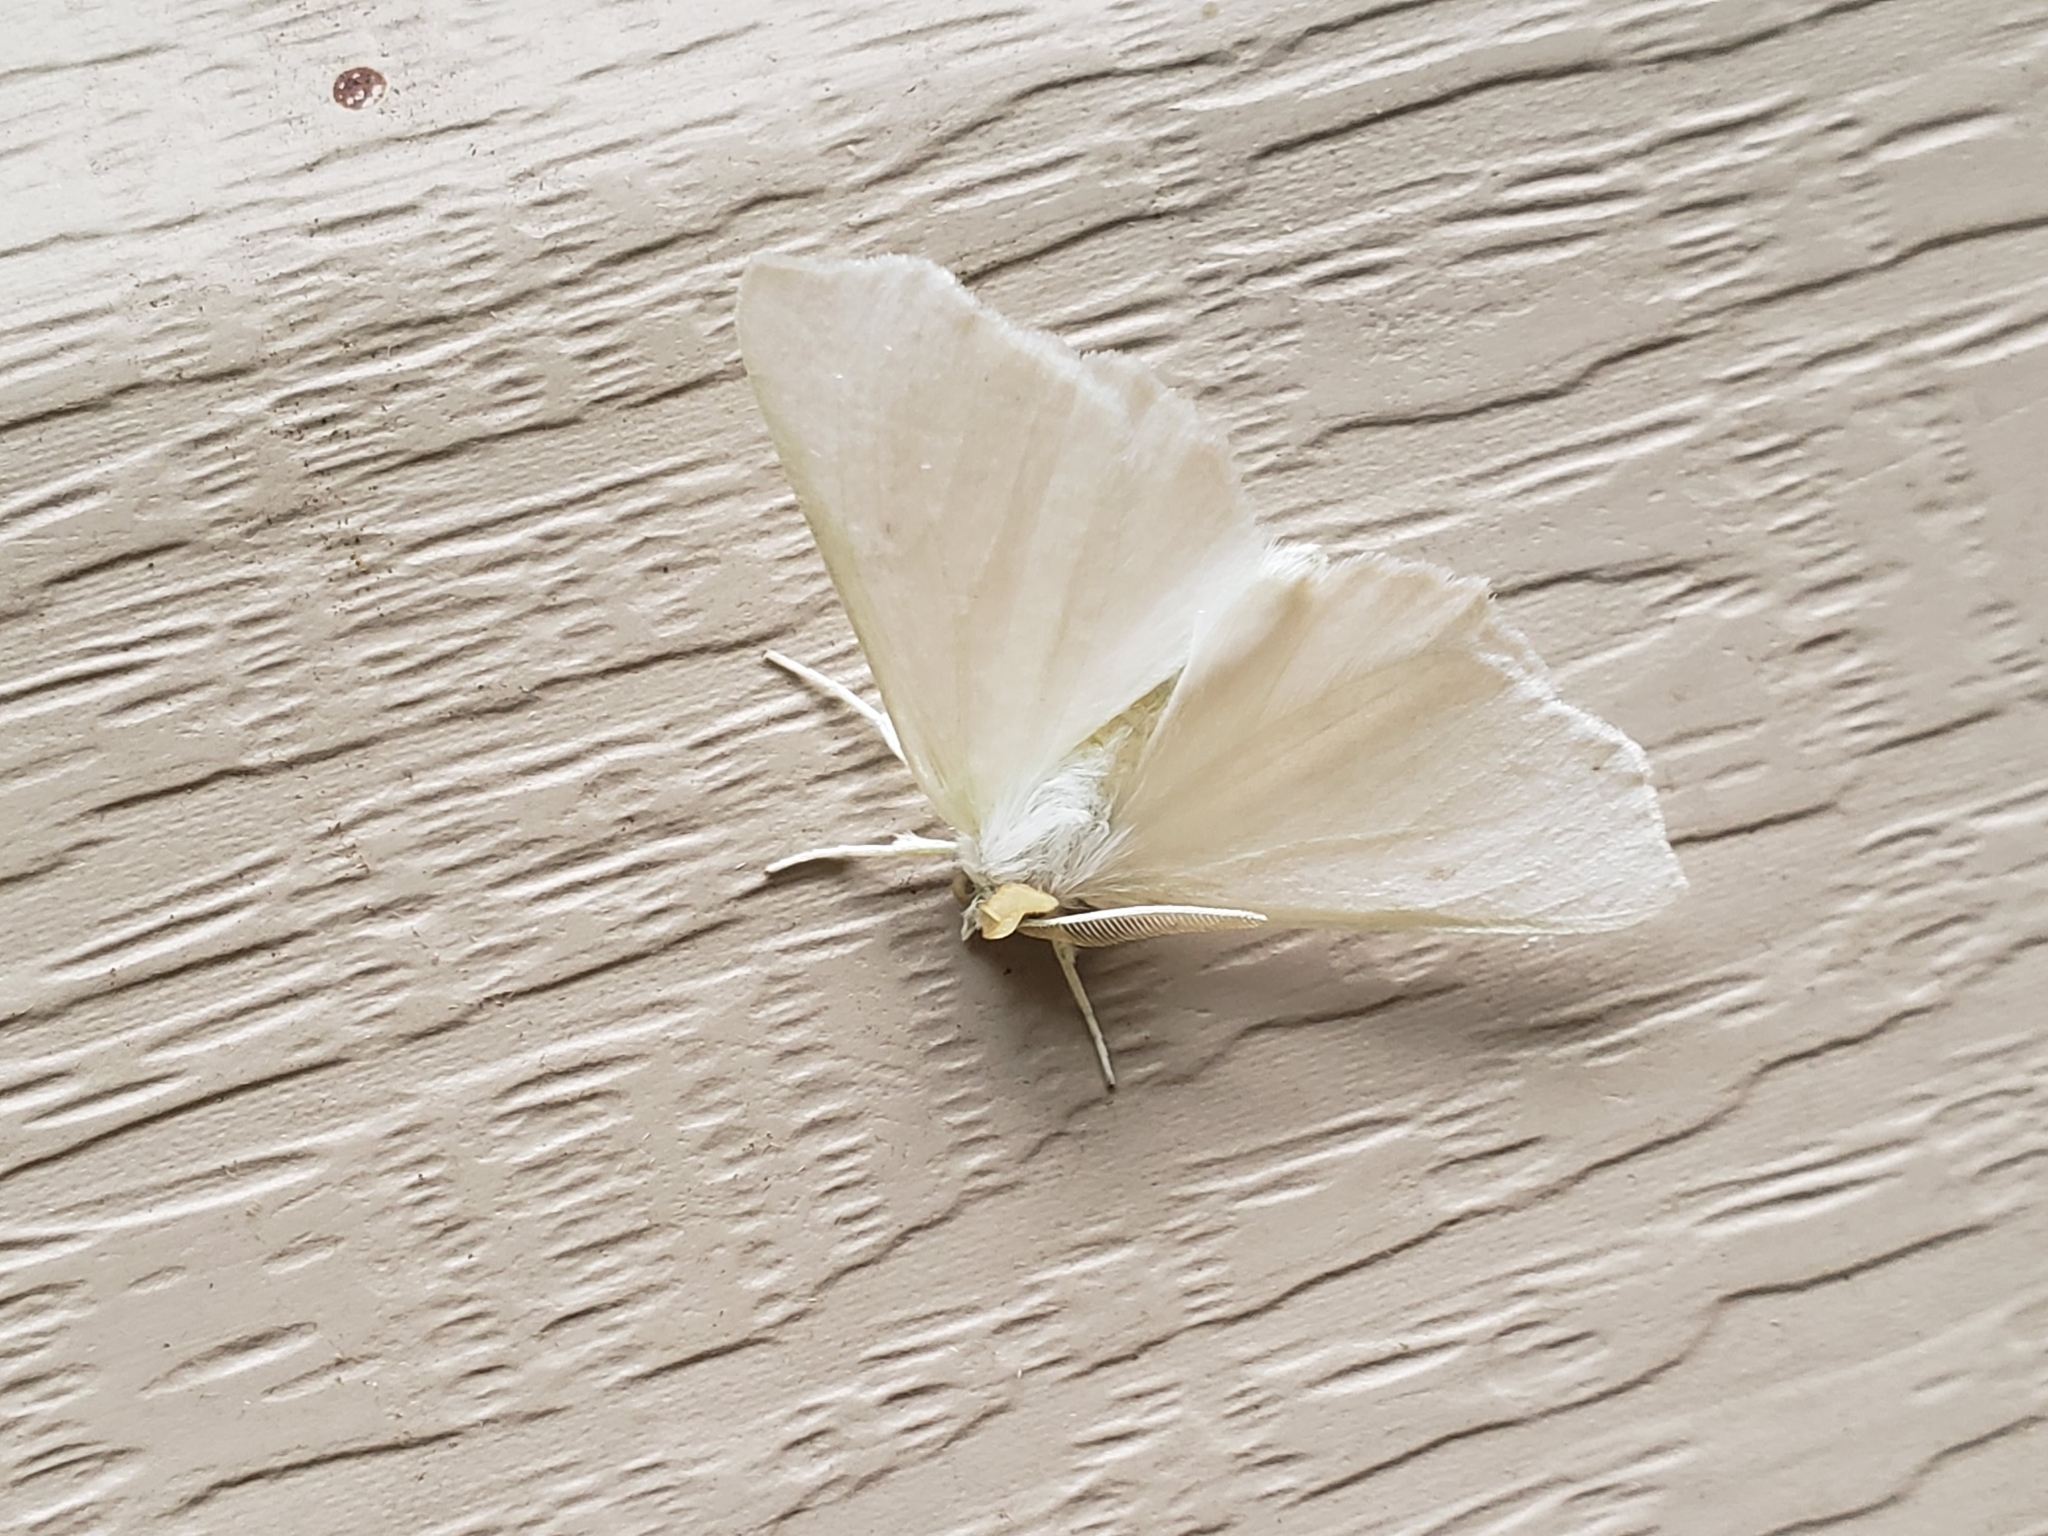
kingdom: Animalia
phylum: Arthropoda
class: Insecta
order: Lepidoptera
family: Geometridae
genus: Ennomos
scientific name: Ennomos subsignaria
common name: Elm spanworm
